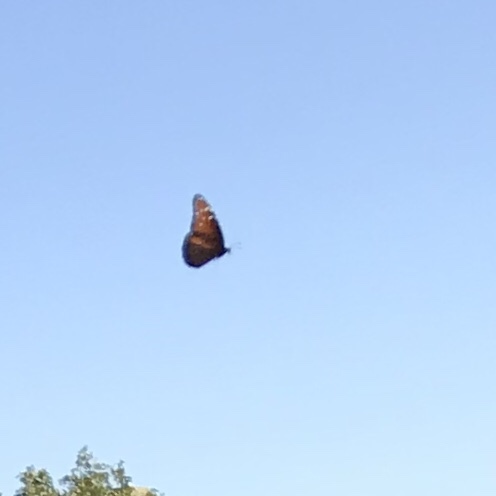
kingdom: Animalia
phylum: Arthropoda
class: Insecta
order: Lepidoptera
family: Nymphalidae
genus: Danaus
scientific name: Danaus gilippus
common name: Queen
